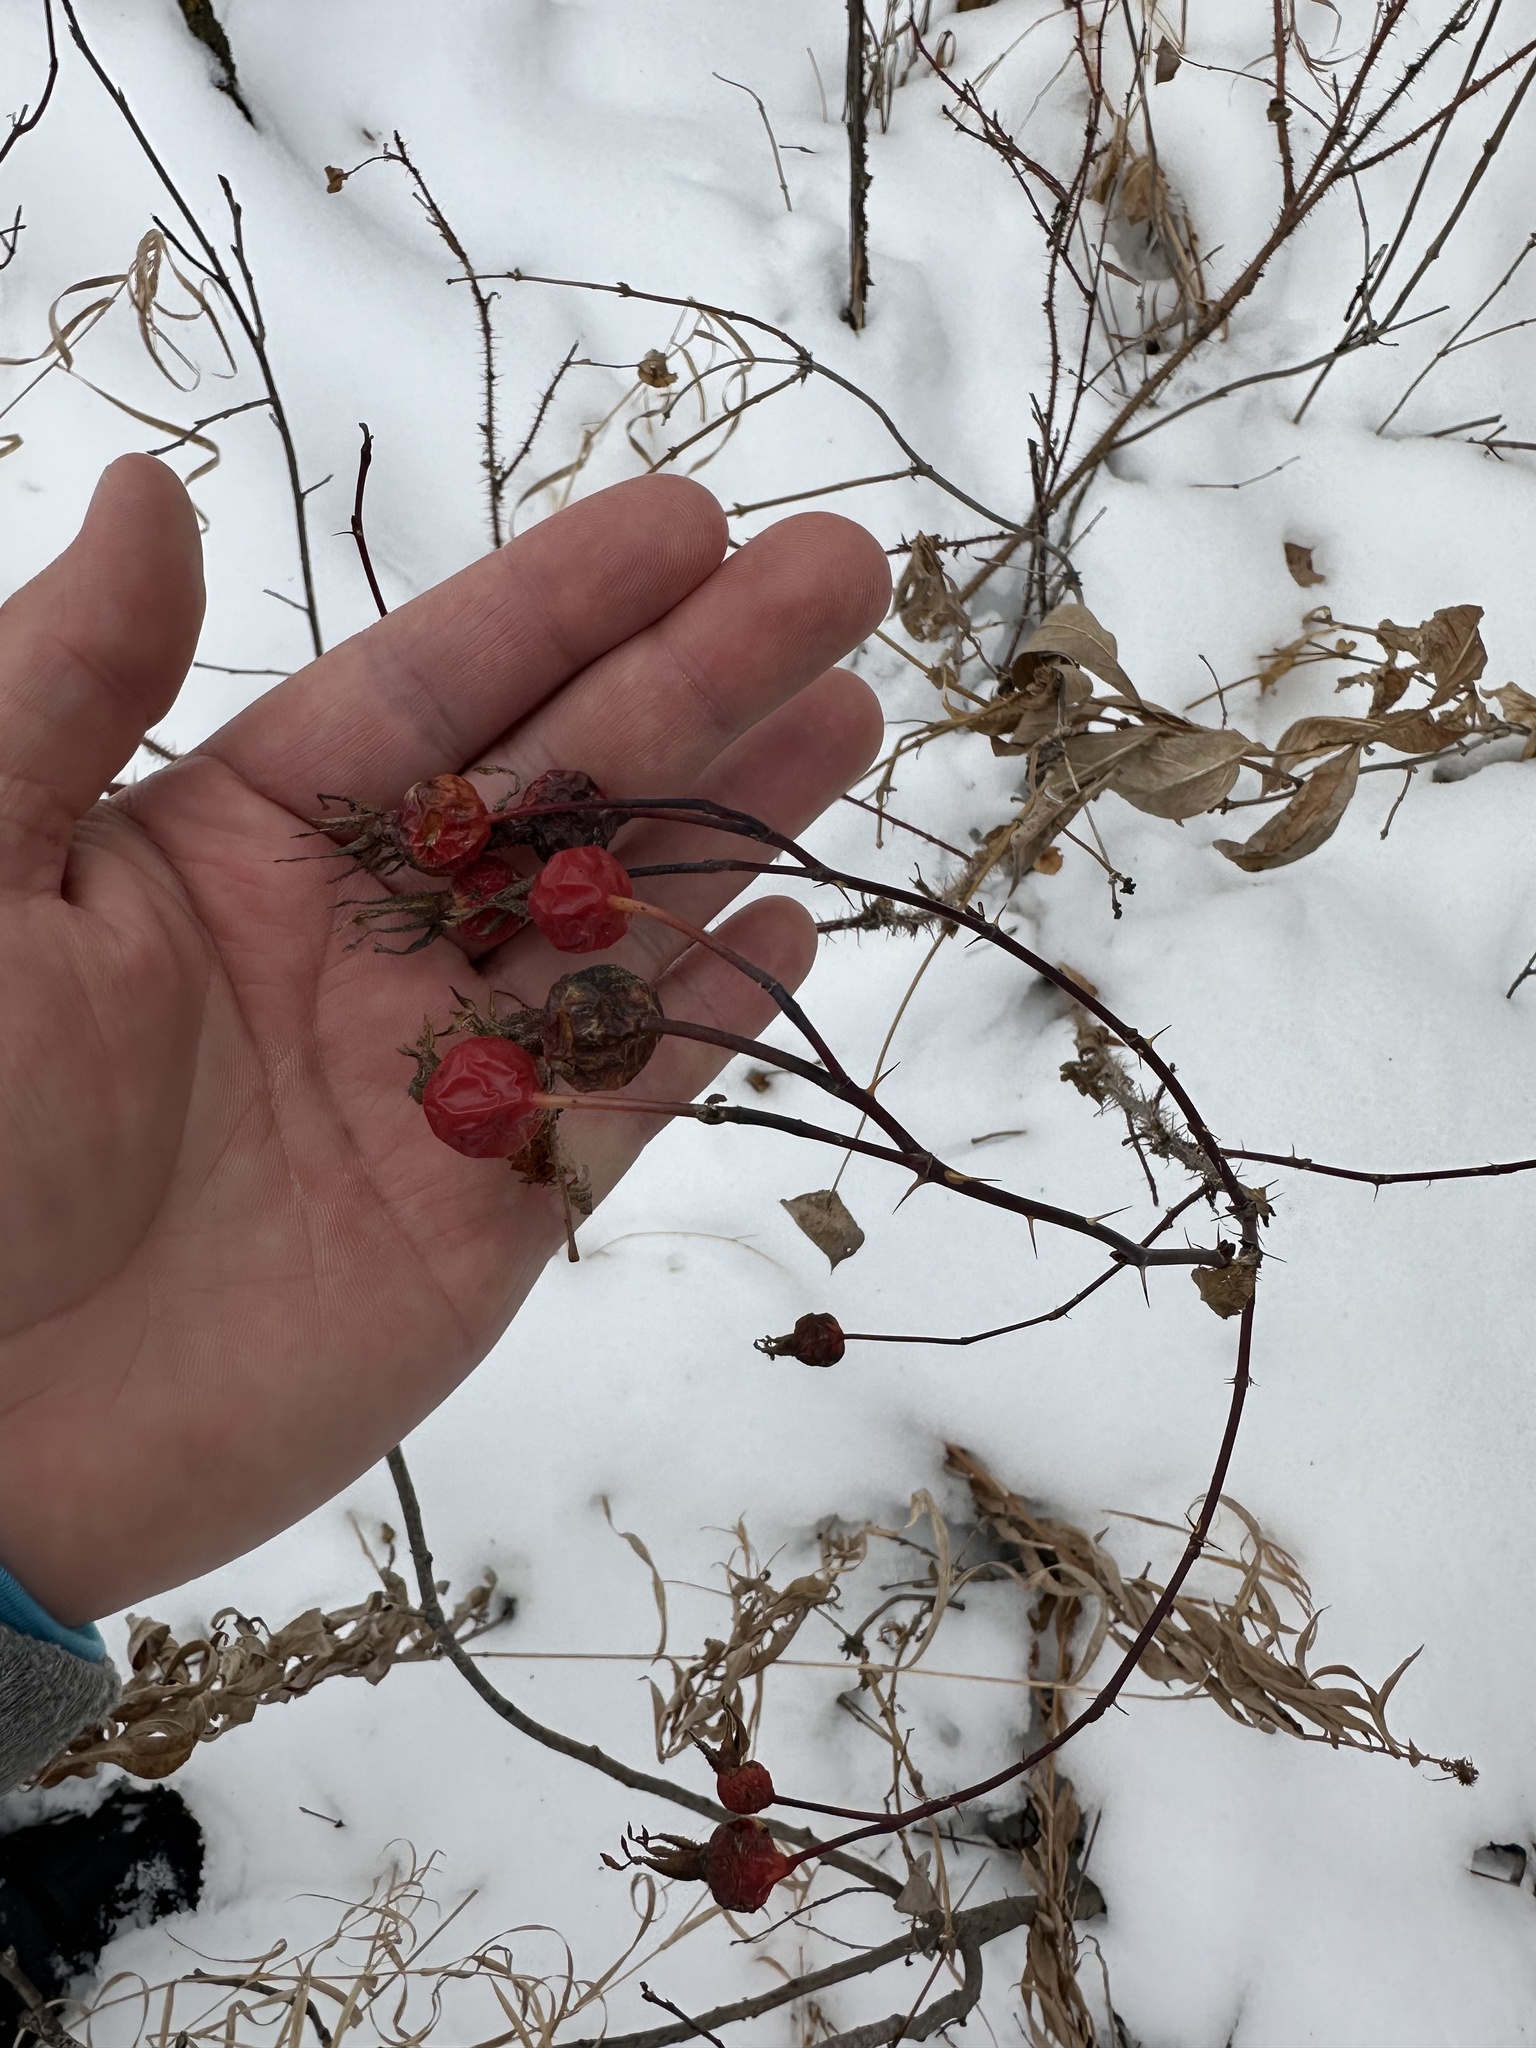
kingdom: Plantae
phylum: Tracheophyta
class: Magnoliopsida
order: Rosales
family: Rosaceae
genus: Rosa
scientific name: Rosa woodsii
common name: Woods's rose
